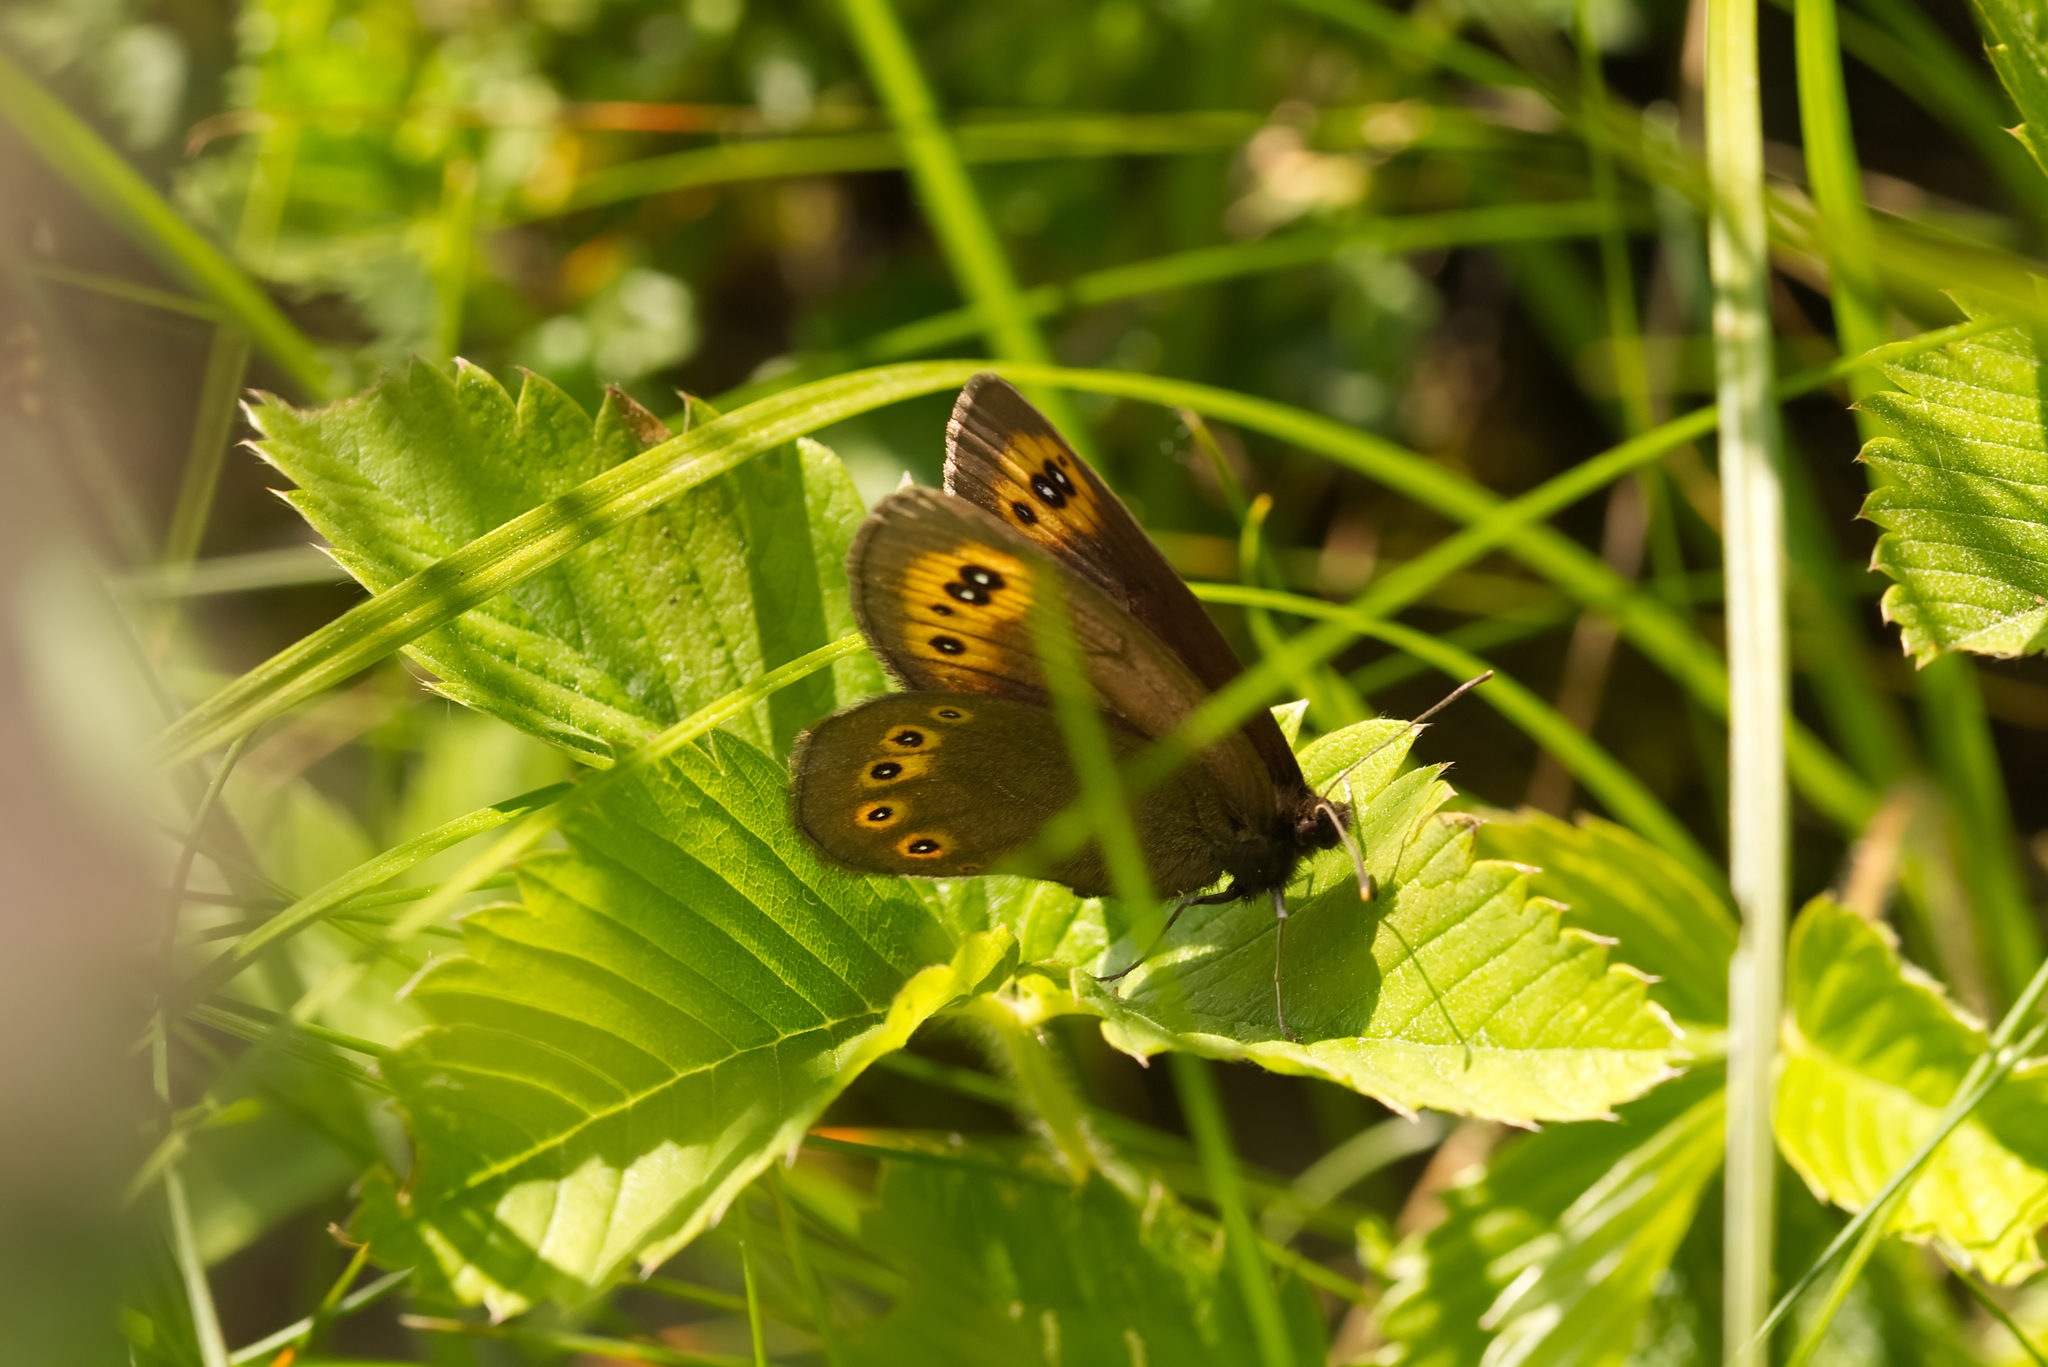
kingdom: Animalia
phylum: Arthropoda
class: Insecta
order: Lepidoptera
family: Nymphalidae
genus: Erebia
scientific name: Erebia medusa
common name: Woodland ringlet
